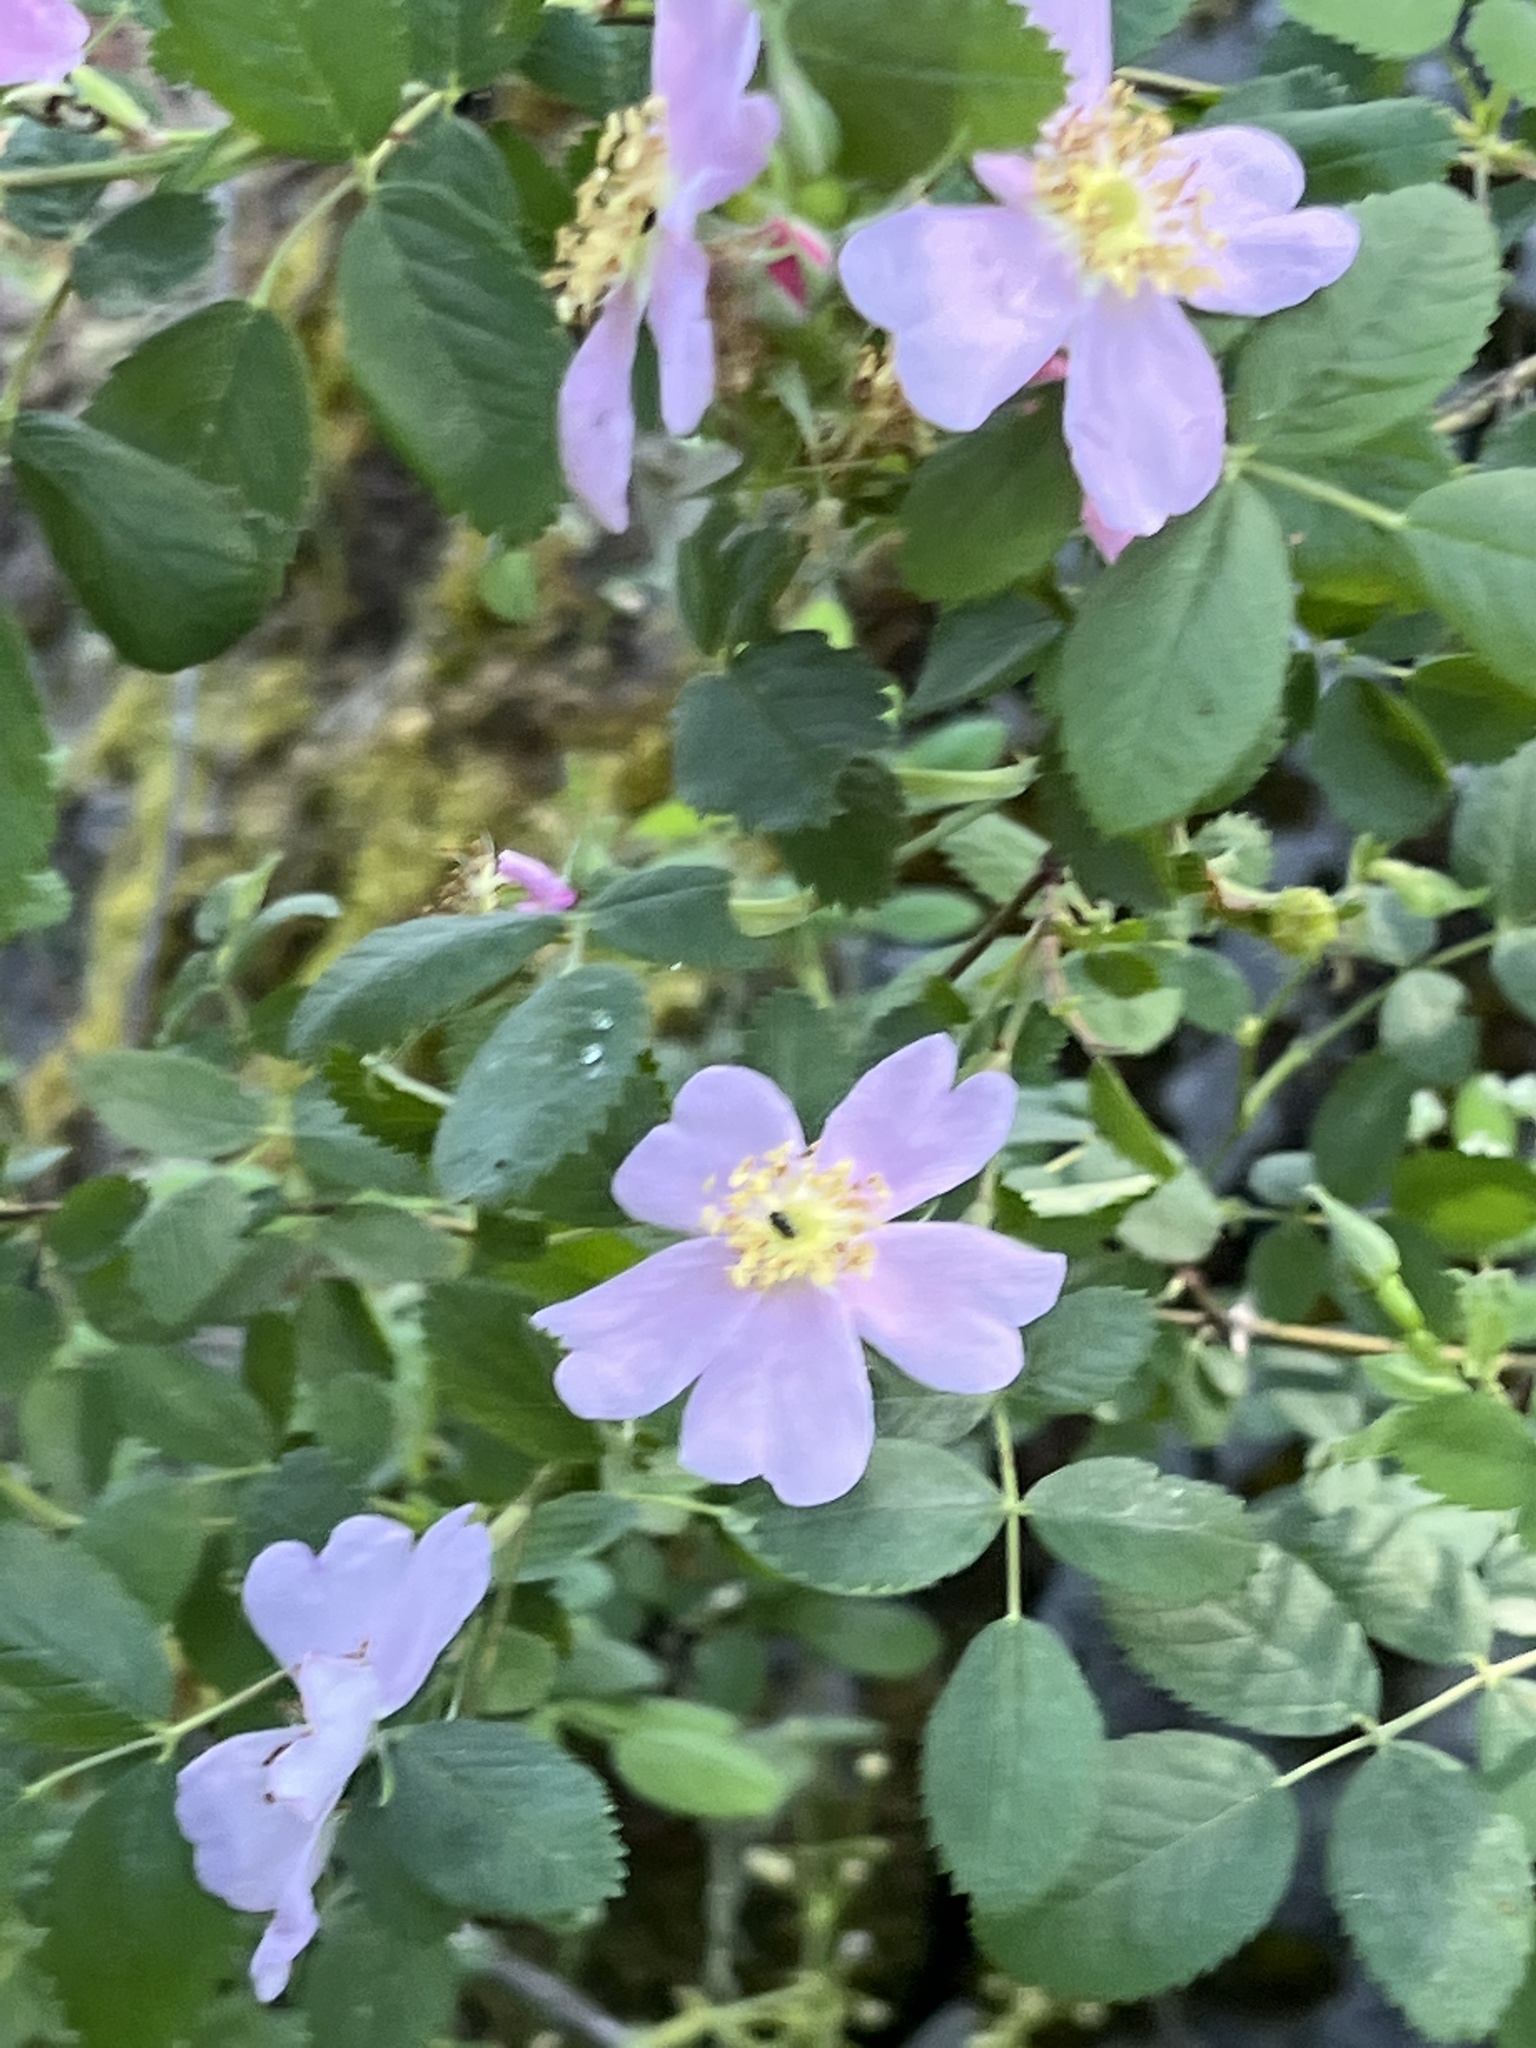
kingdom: Plantae
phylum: Tracheophyta
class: Magnoliopsida
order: Rosales
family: Rosaceae
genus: Rosa
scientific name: Rosa californica
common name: California rose
